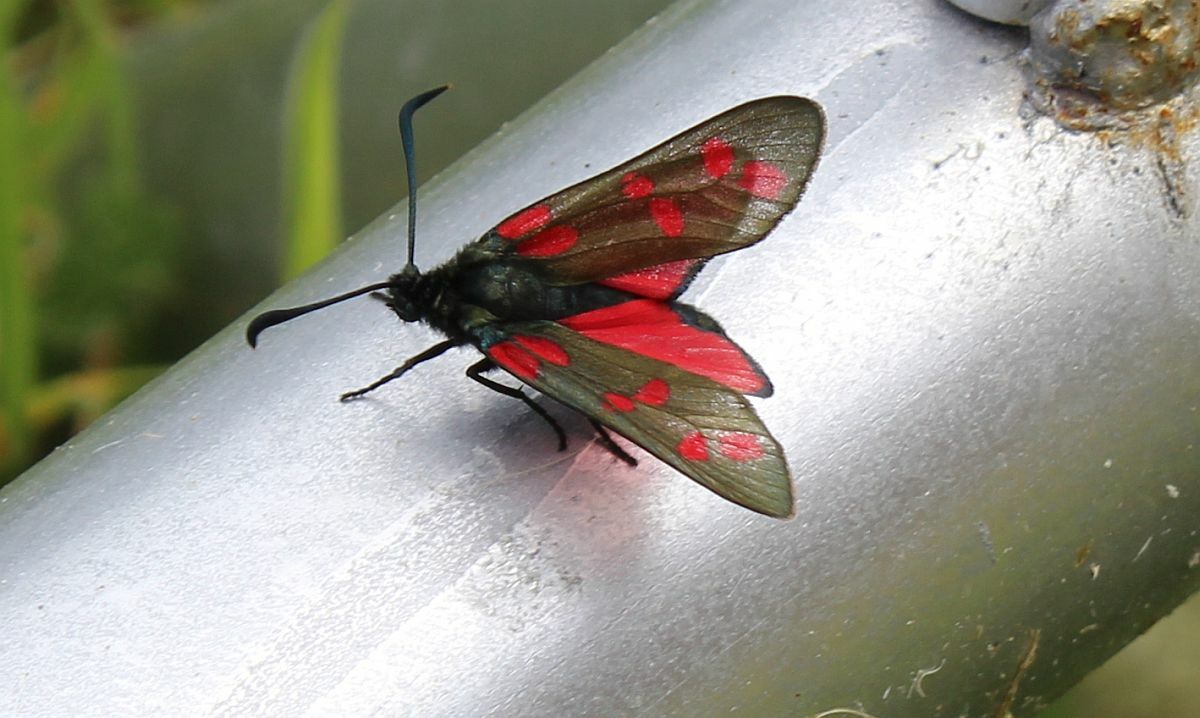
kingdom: Animalia
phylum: Arthropoda
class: Insecta
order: Lepidoptera
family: Zygaenidae
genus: Zygaena
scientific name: Zygaena filipendulae
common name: Six-spot burnet
